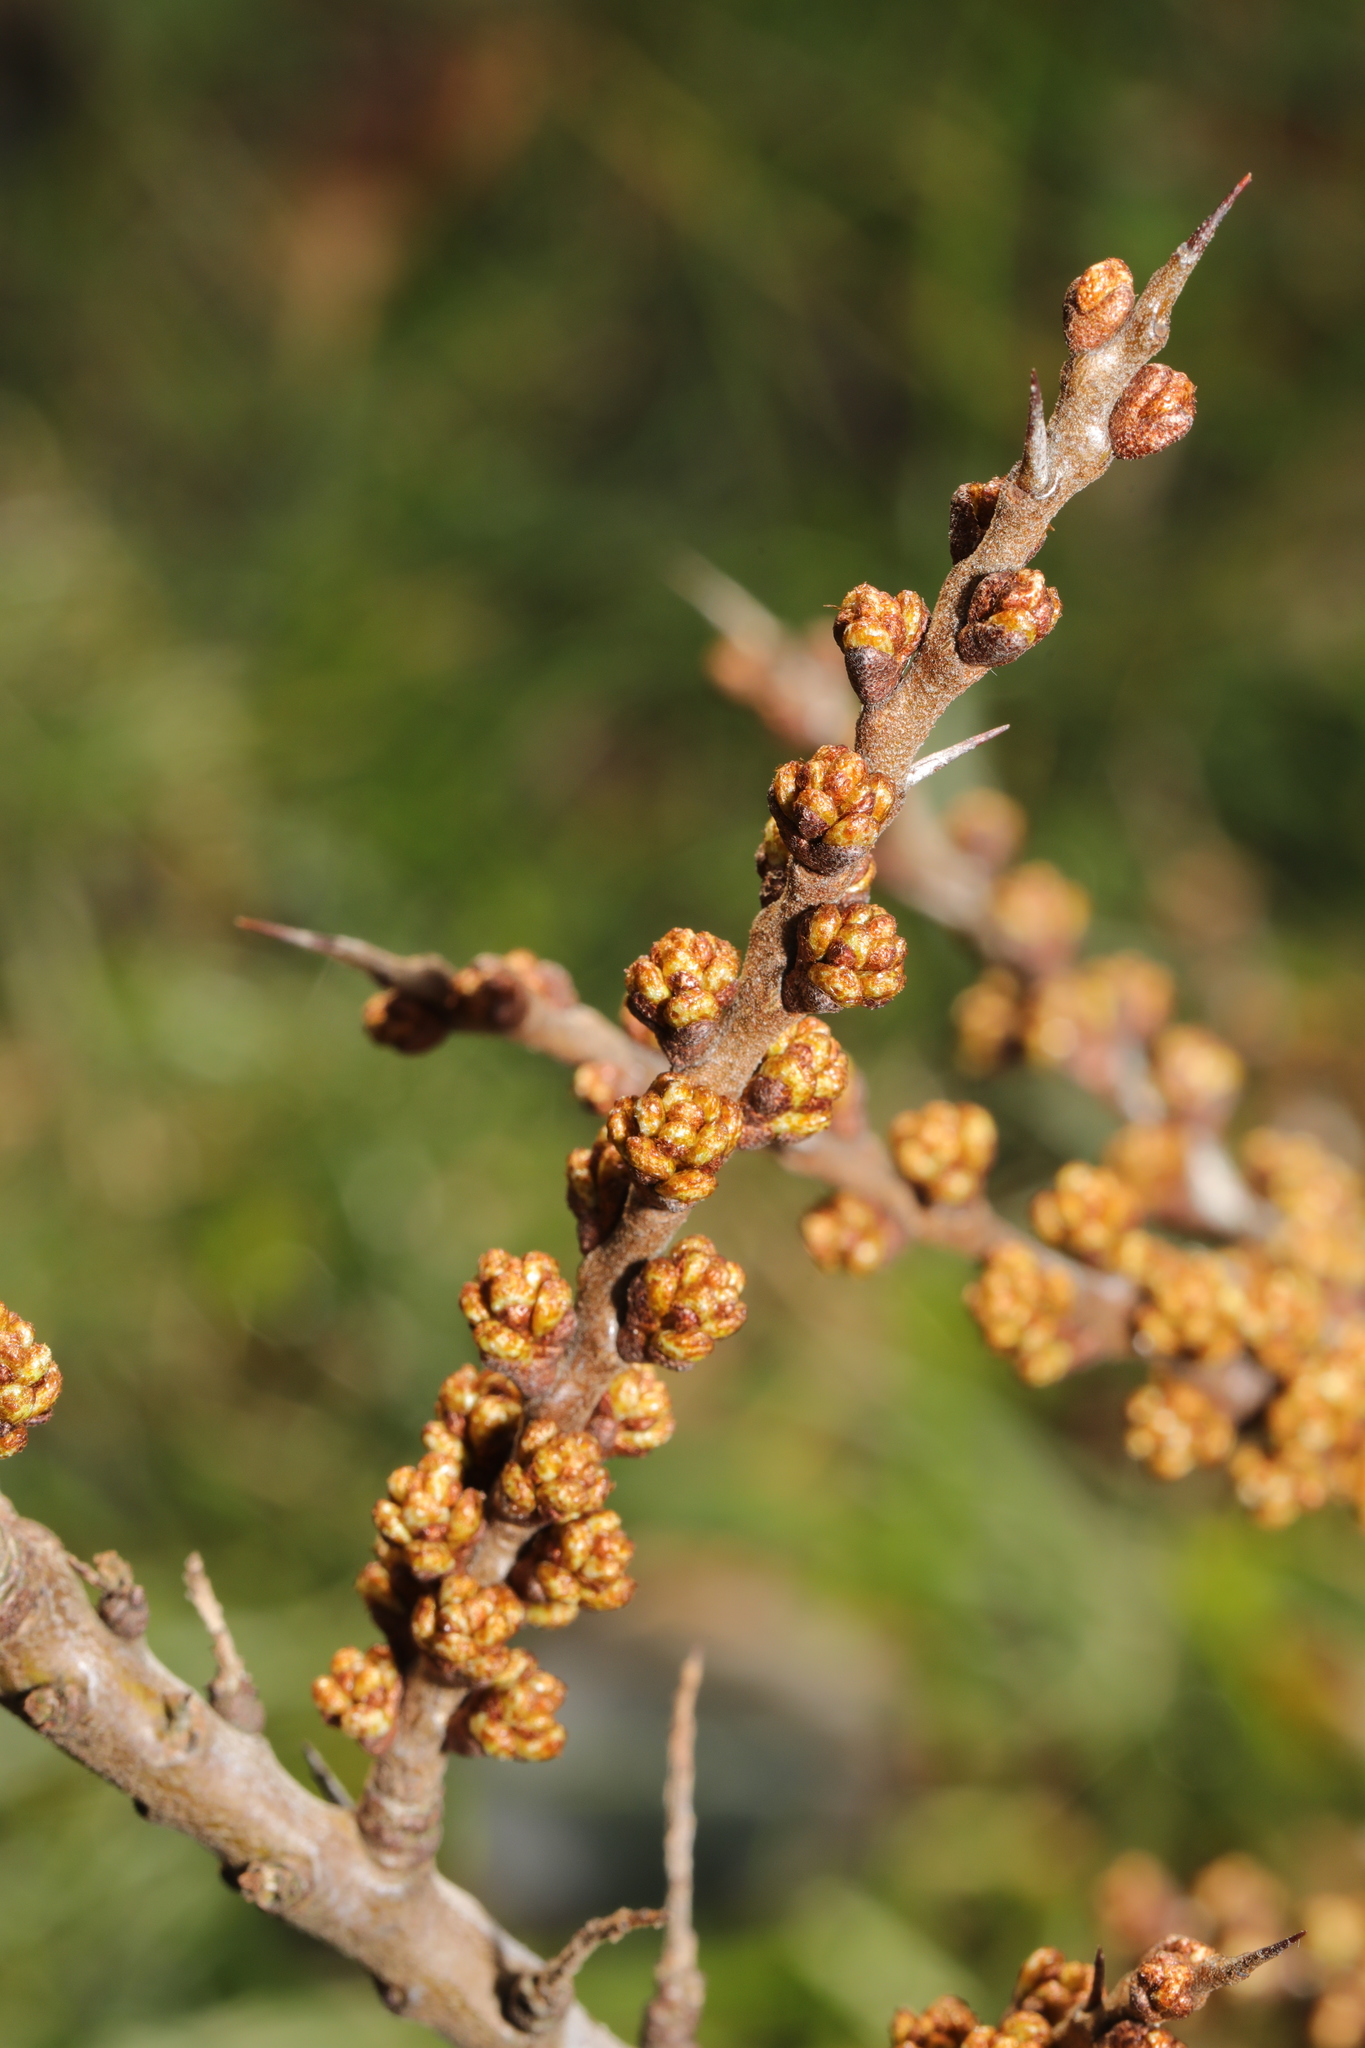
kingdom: Plantae
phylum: Tracheophyta
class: Magnoliopsida
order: Rosales
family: Elaeagnaceae
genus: Hippophae
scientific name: Hippophae rhamnoides
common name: Sea-buckthorn
